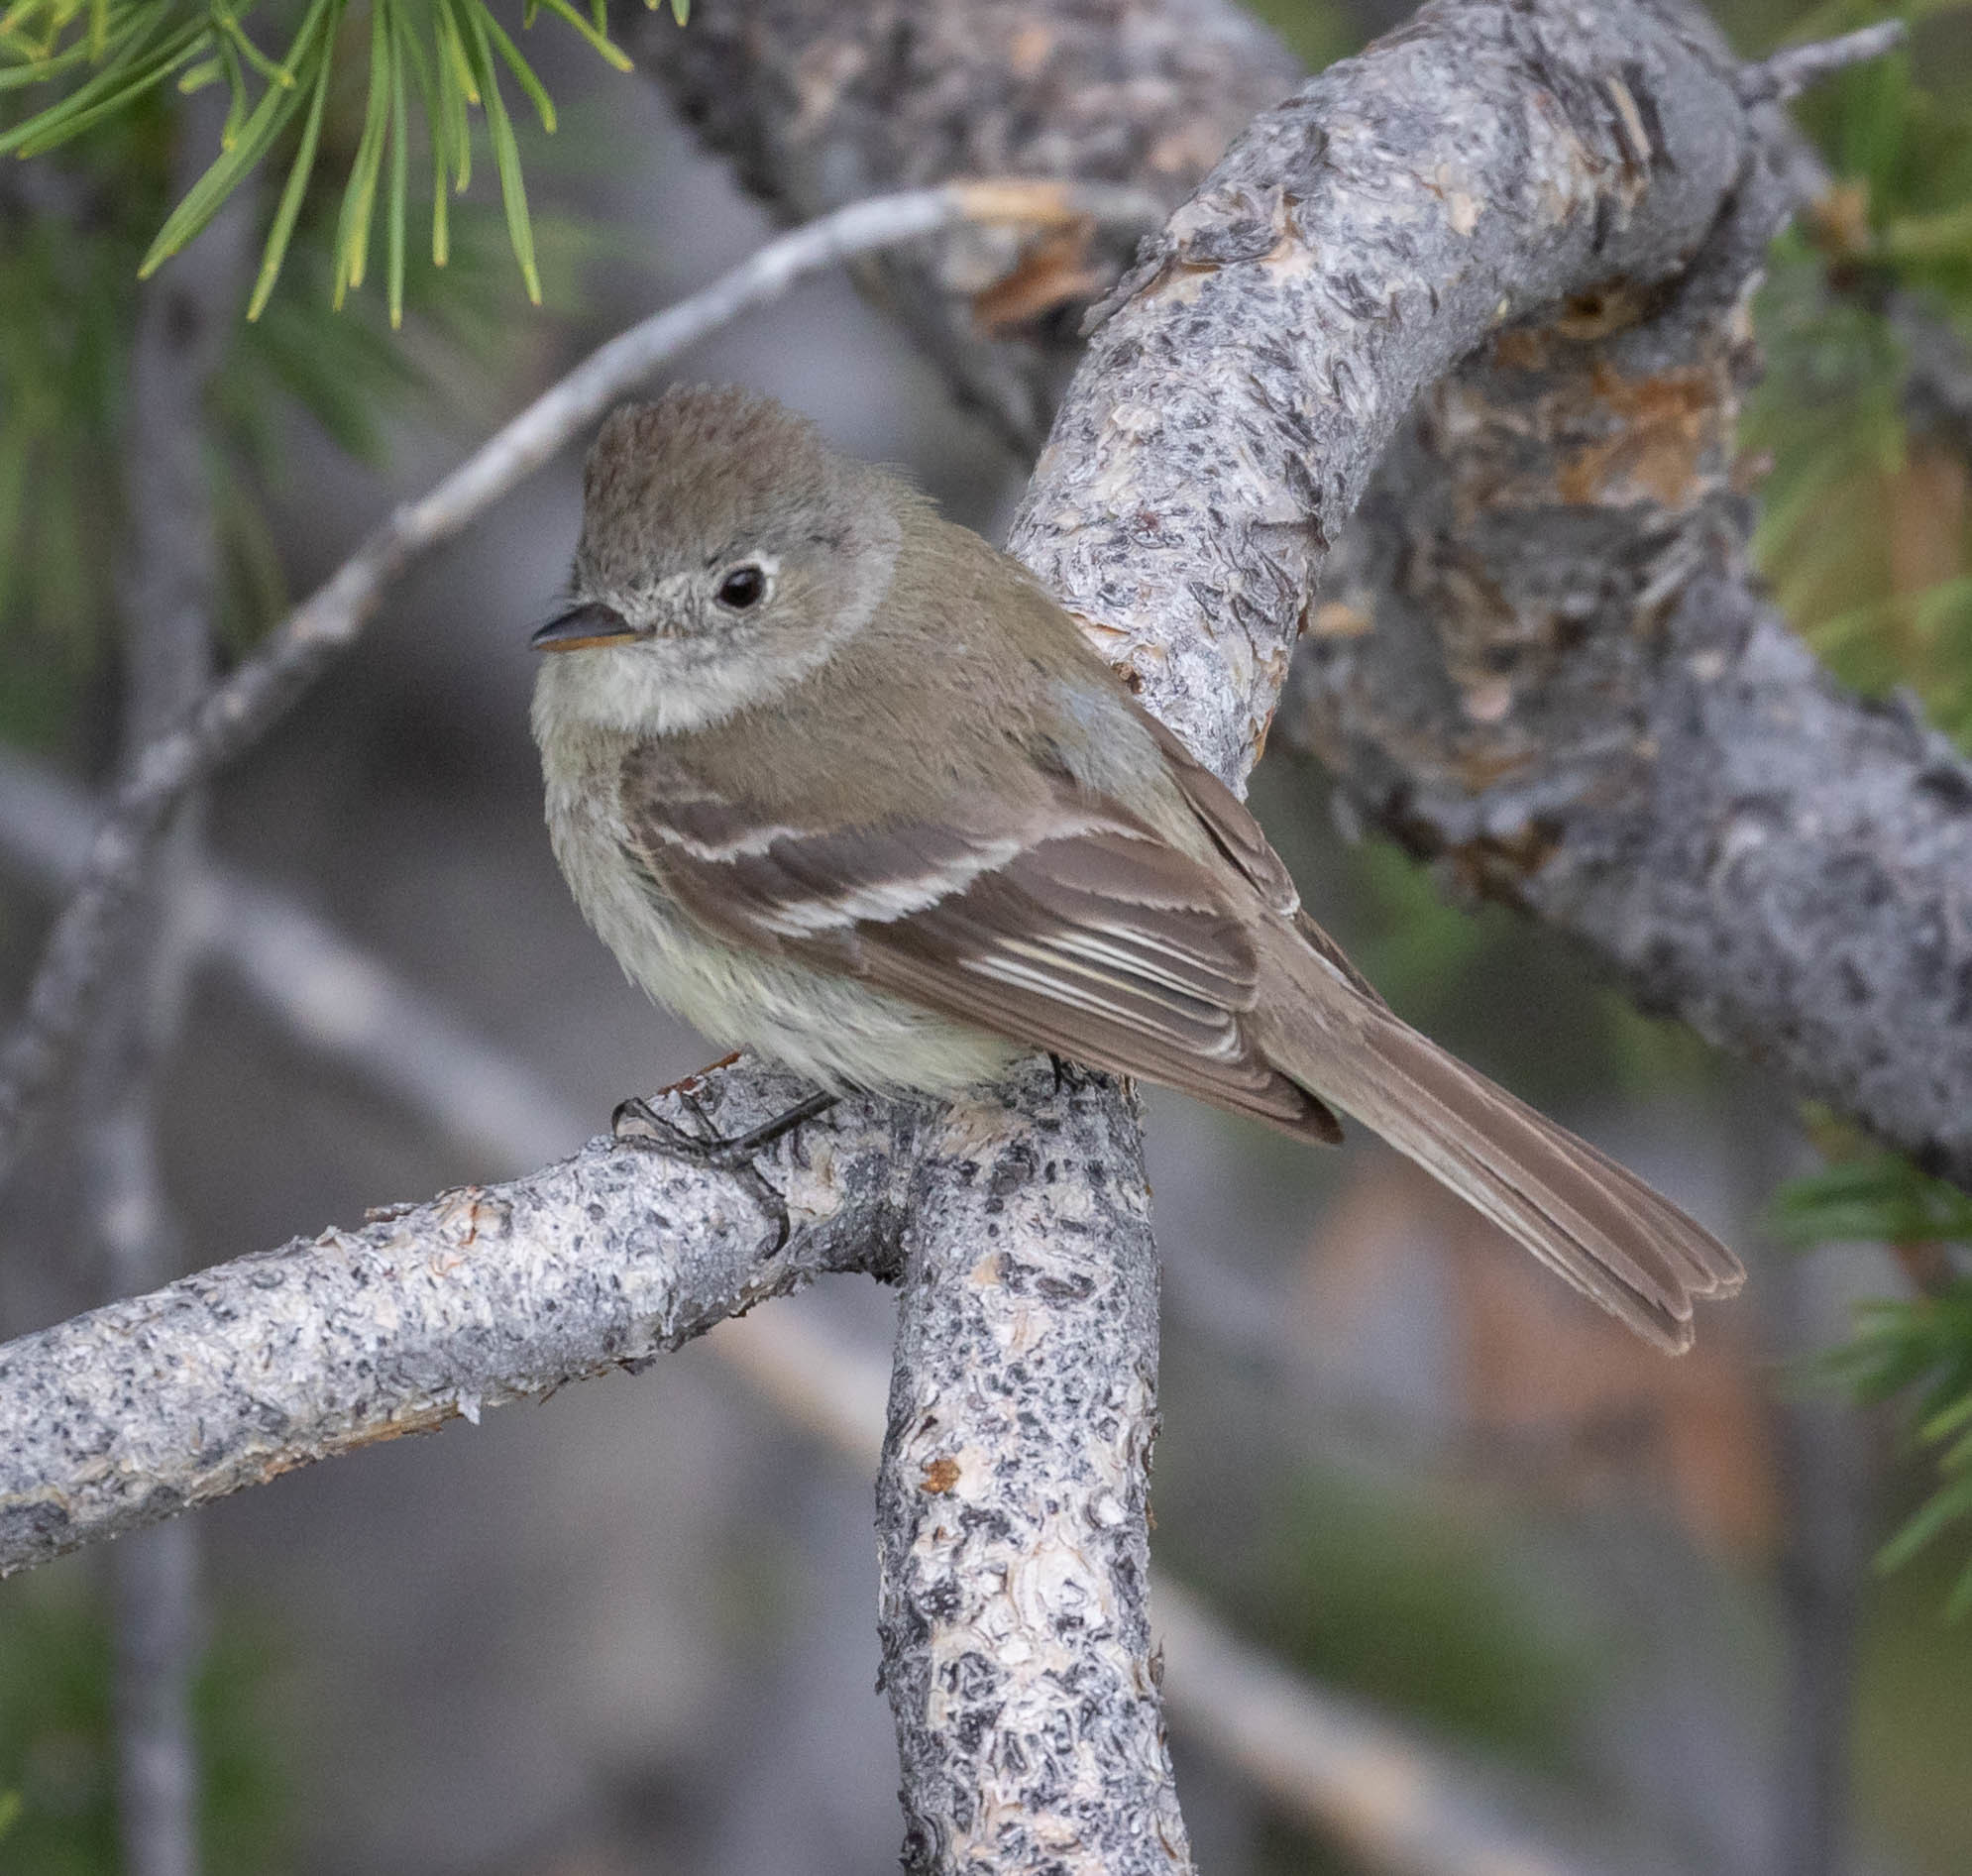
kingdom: Animalia
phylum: Chordata
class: Aves
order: Passeriformes
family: Tyrannidae
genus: Empidonax
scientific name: Empidonax oberholseri
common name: Dusky flycatcher
